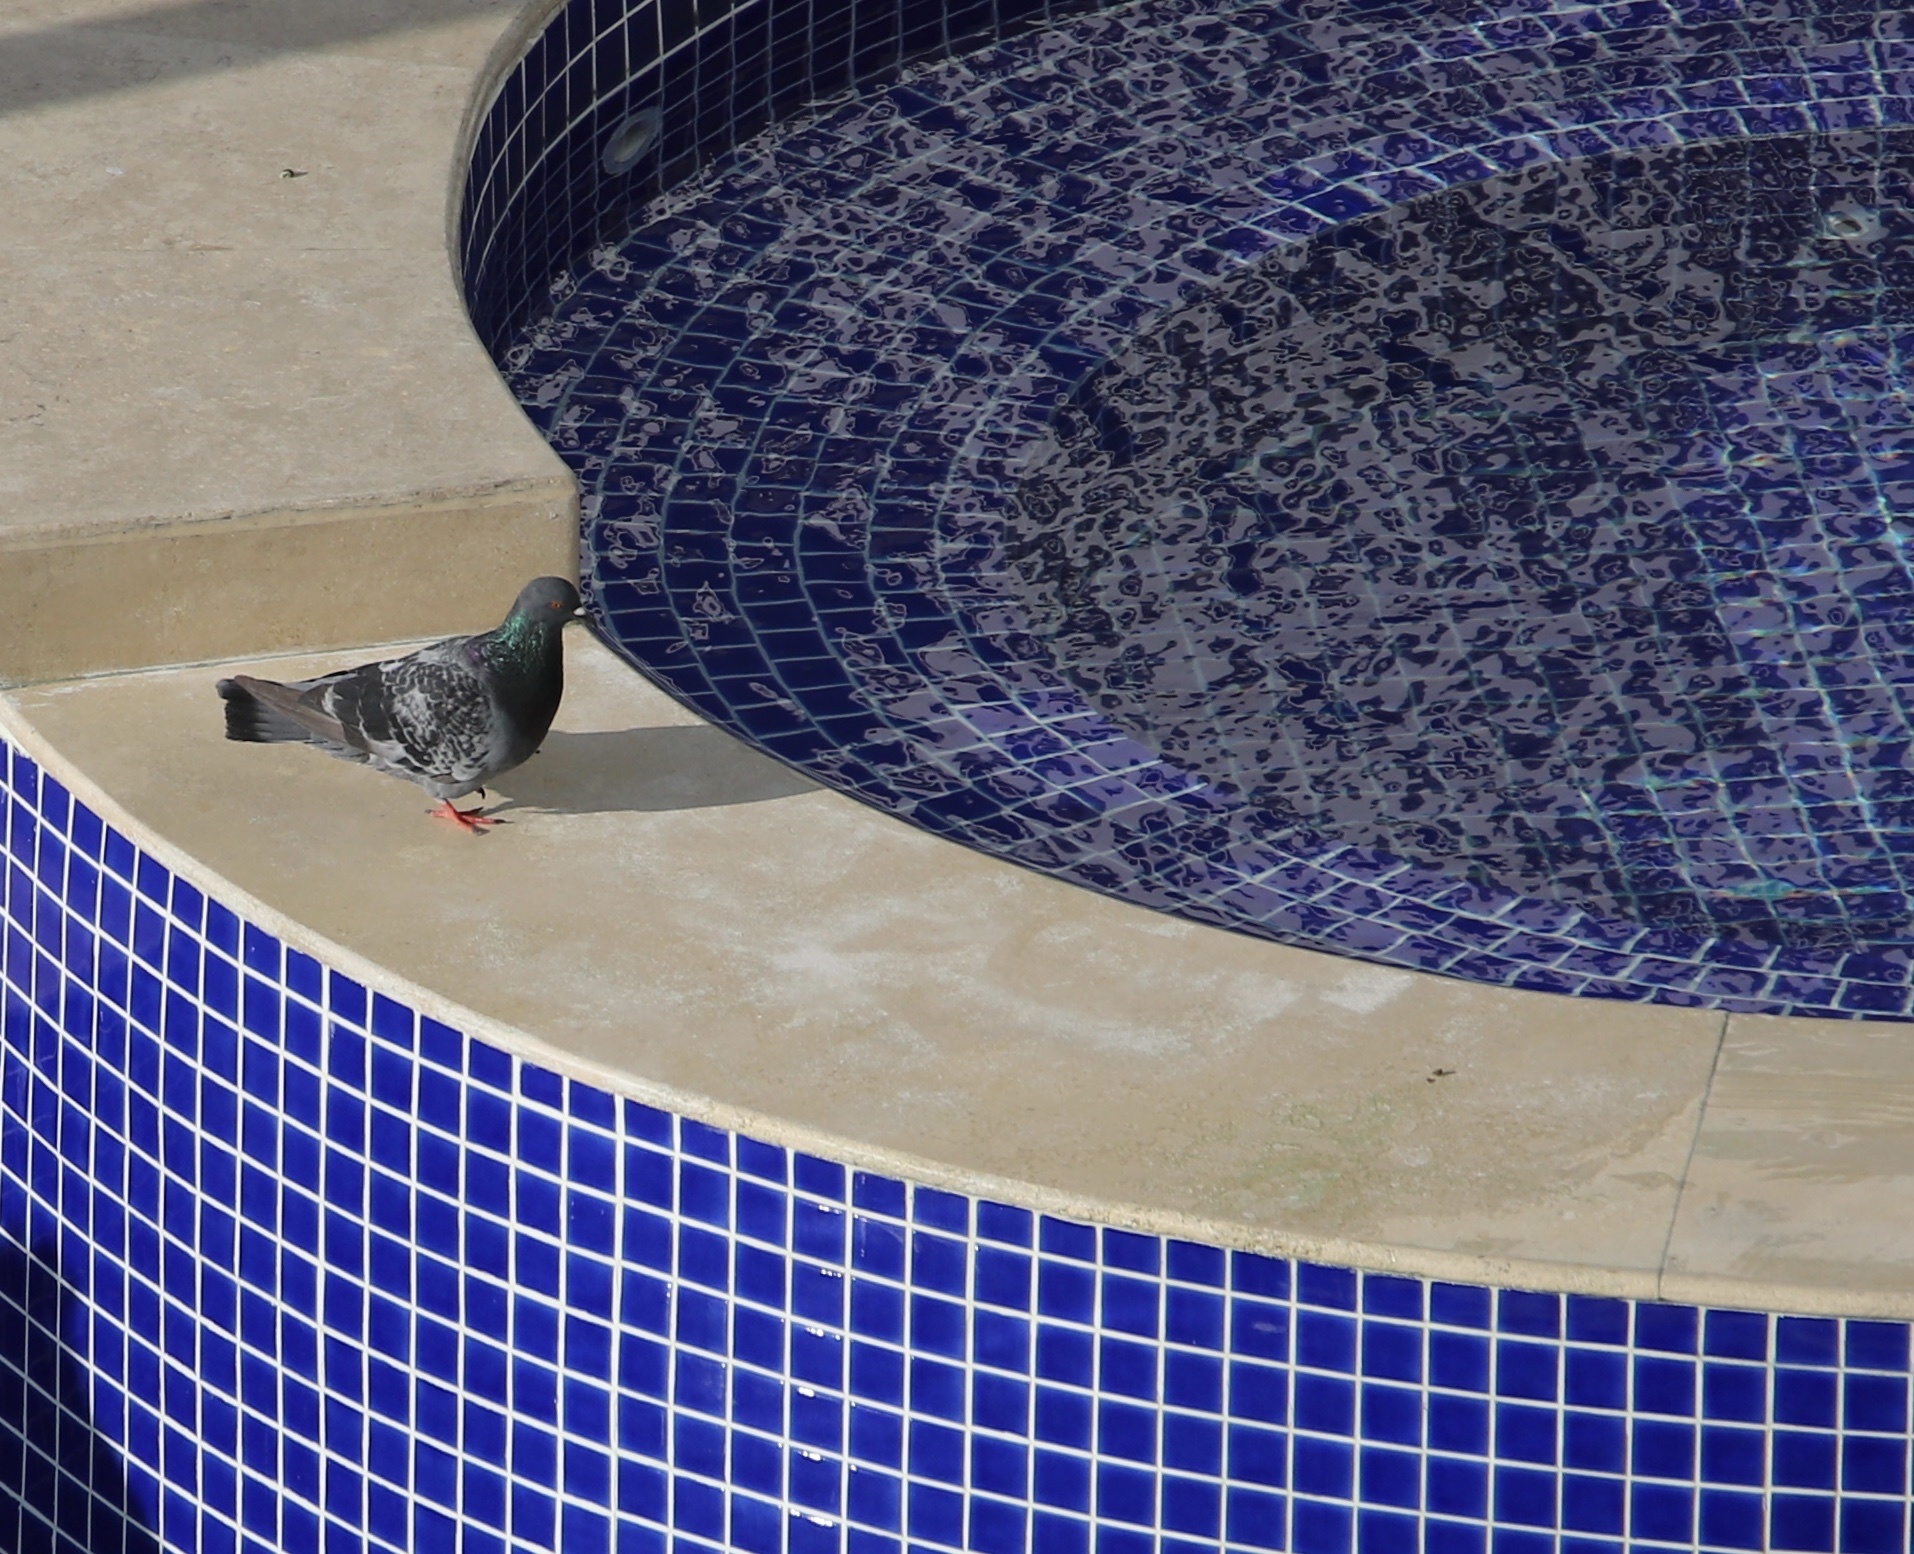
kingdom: Animalia
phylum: Chordata
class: Aves
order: Columbiformes
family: Columbidae
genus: Columba
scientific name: Columba livia
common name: Rock pigeon
